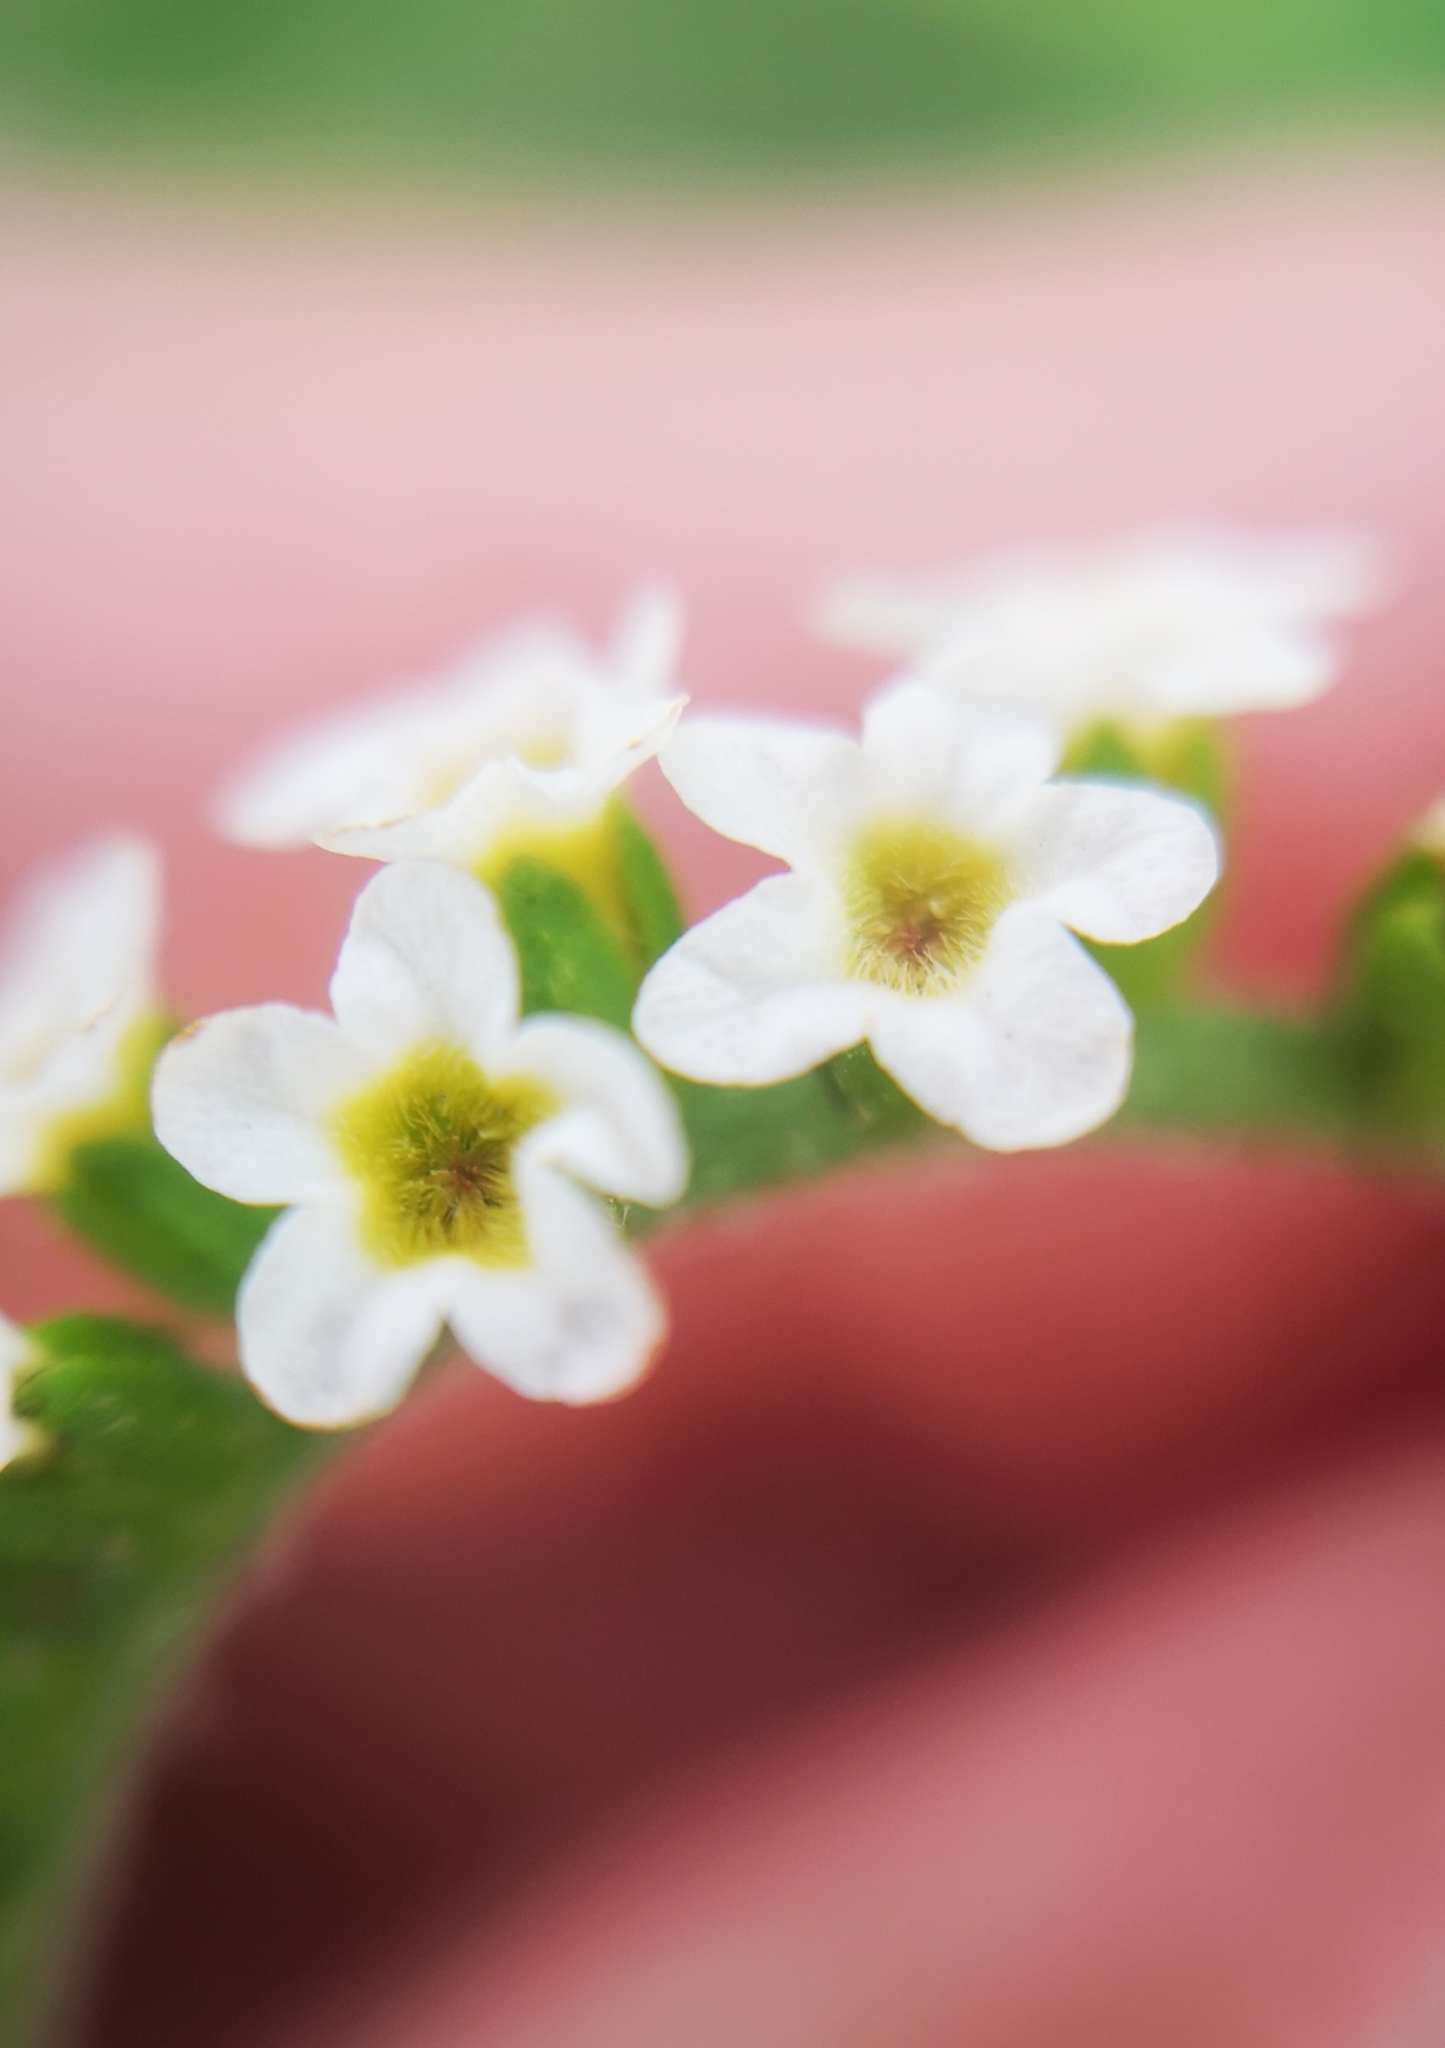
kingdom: Plantae
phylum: Tracheophyta
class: Magnoliopsida
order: Boraginales
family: Heliotropiaceae
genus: Heliotropium
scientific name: Heliotropium angiospermum
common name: Eye bright
